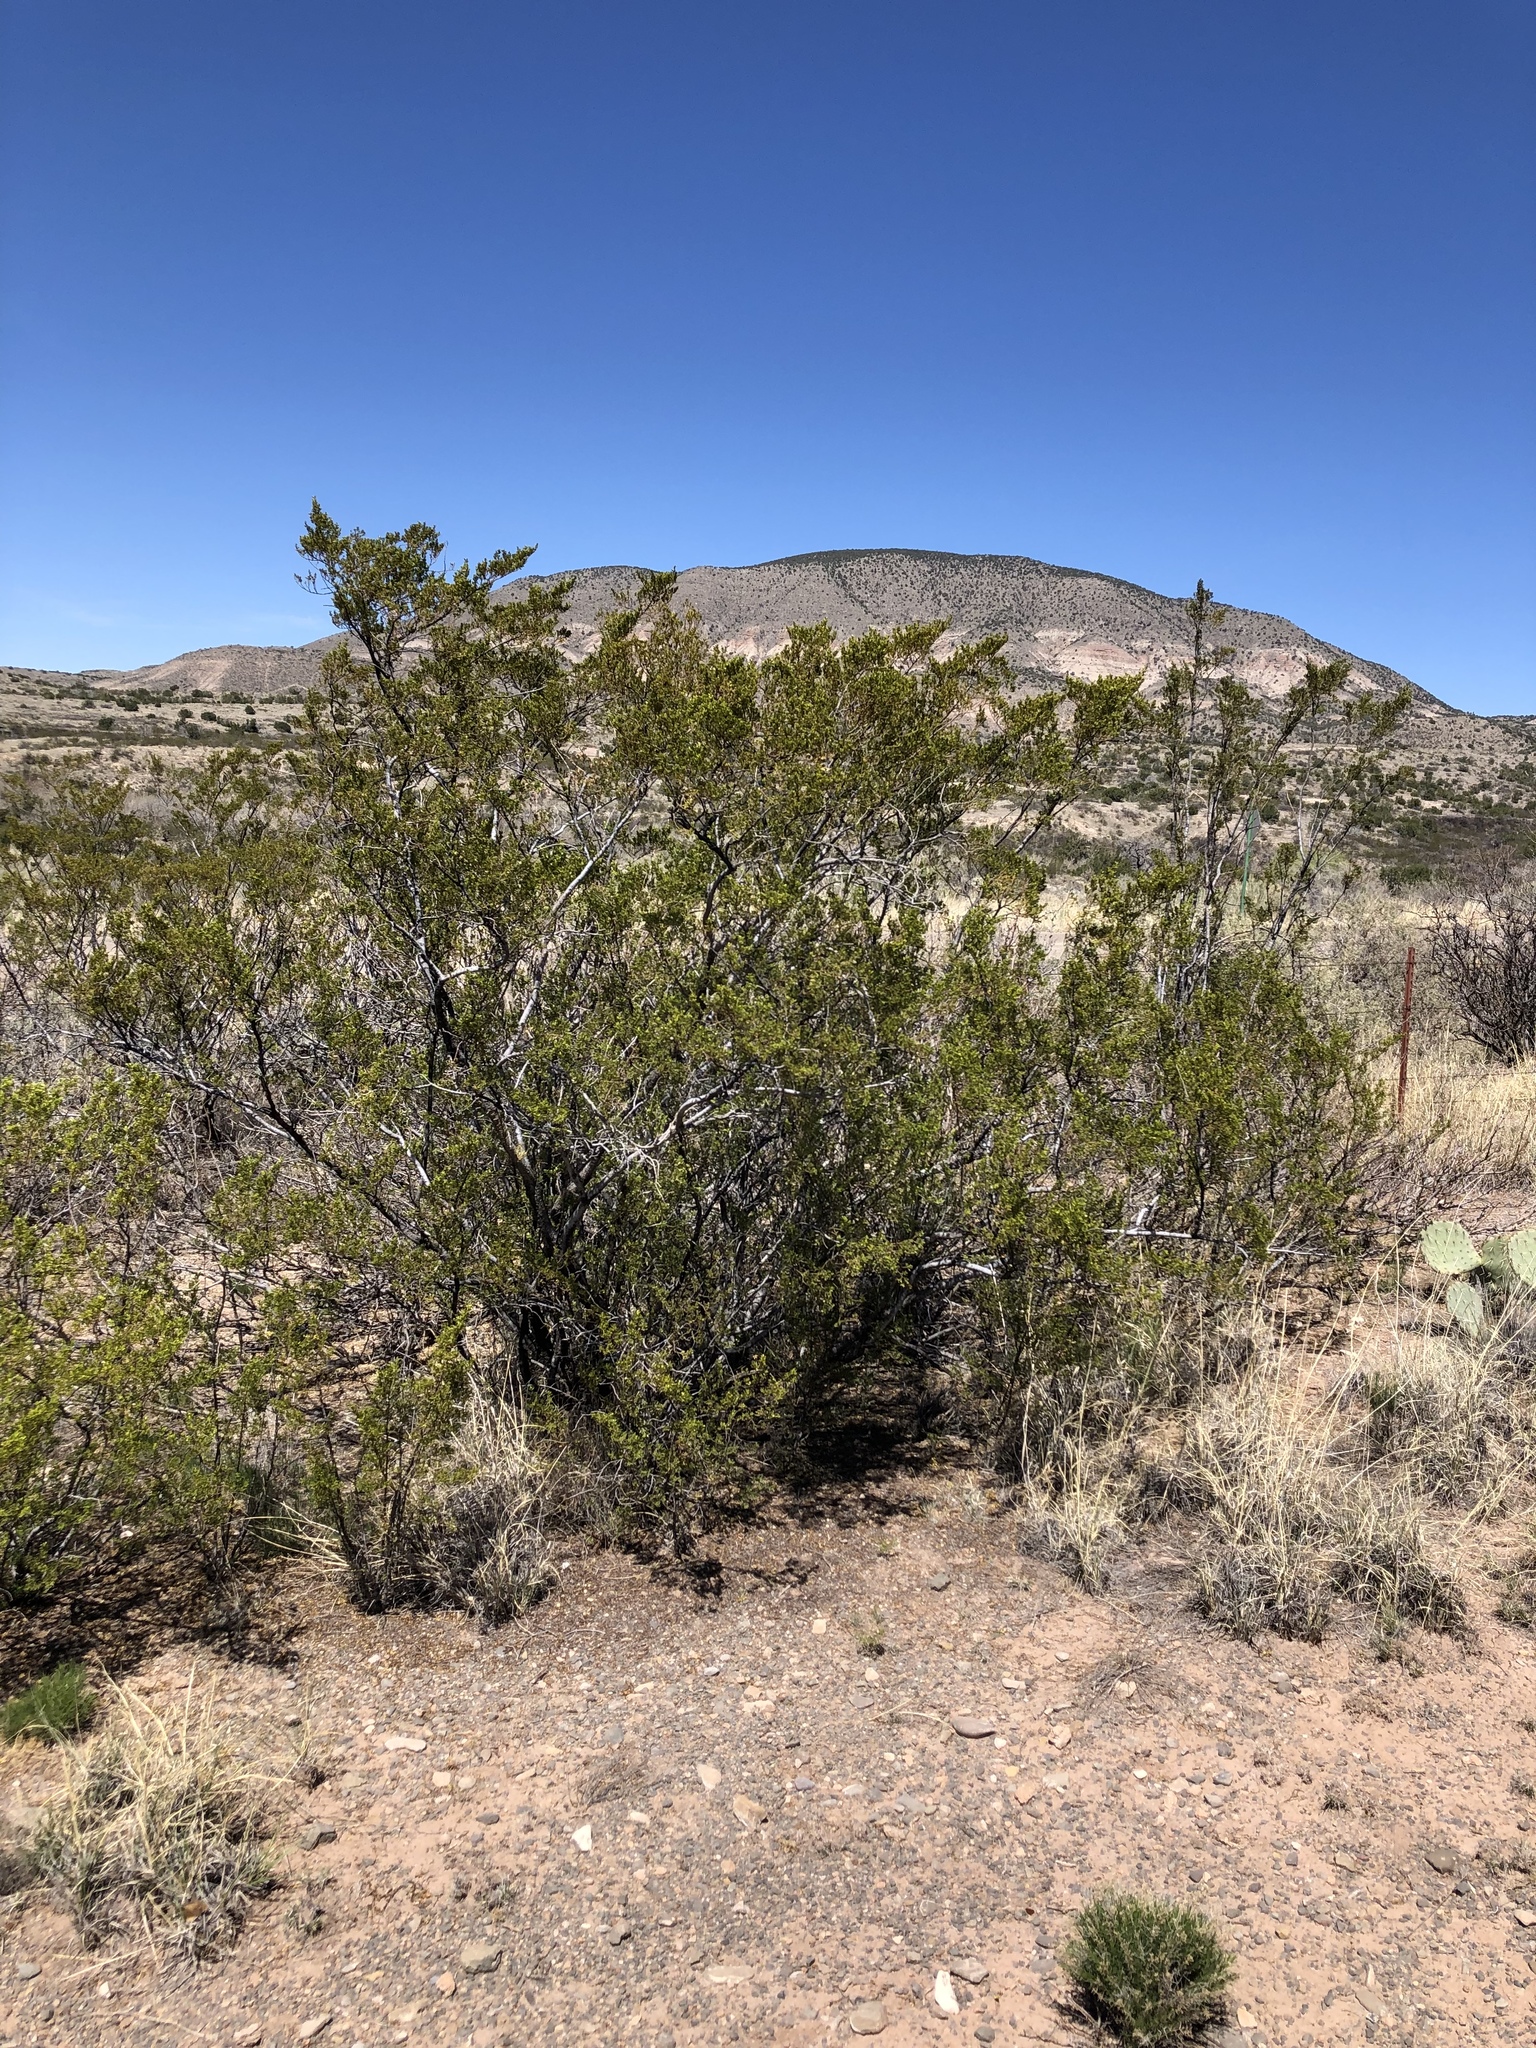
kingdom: Plantae
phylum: Tracheophyta
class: Magnoliopsida
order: Zygophyllales
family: Zygophyllaceae
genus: Larrea
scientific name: Larrea tridentata
